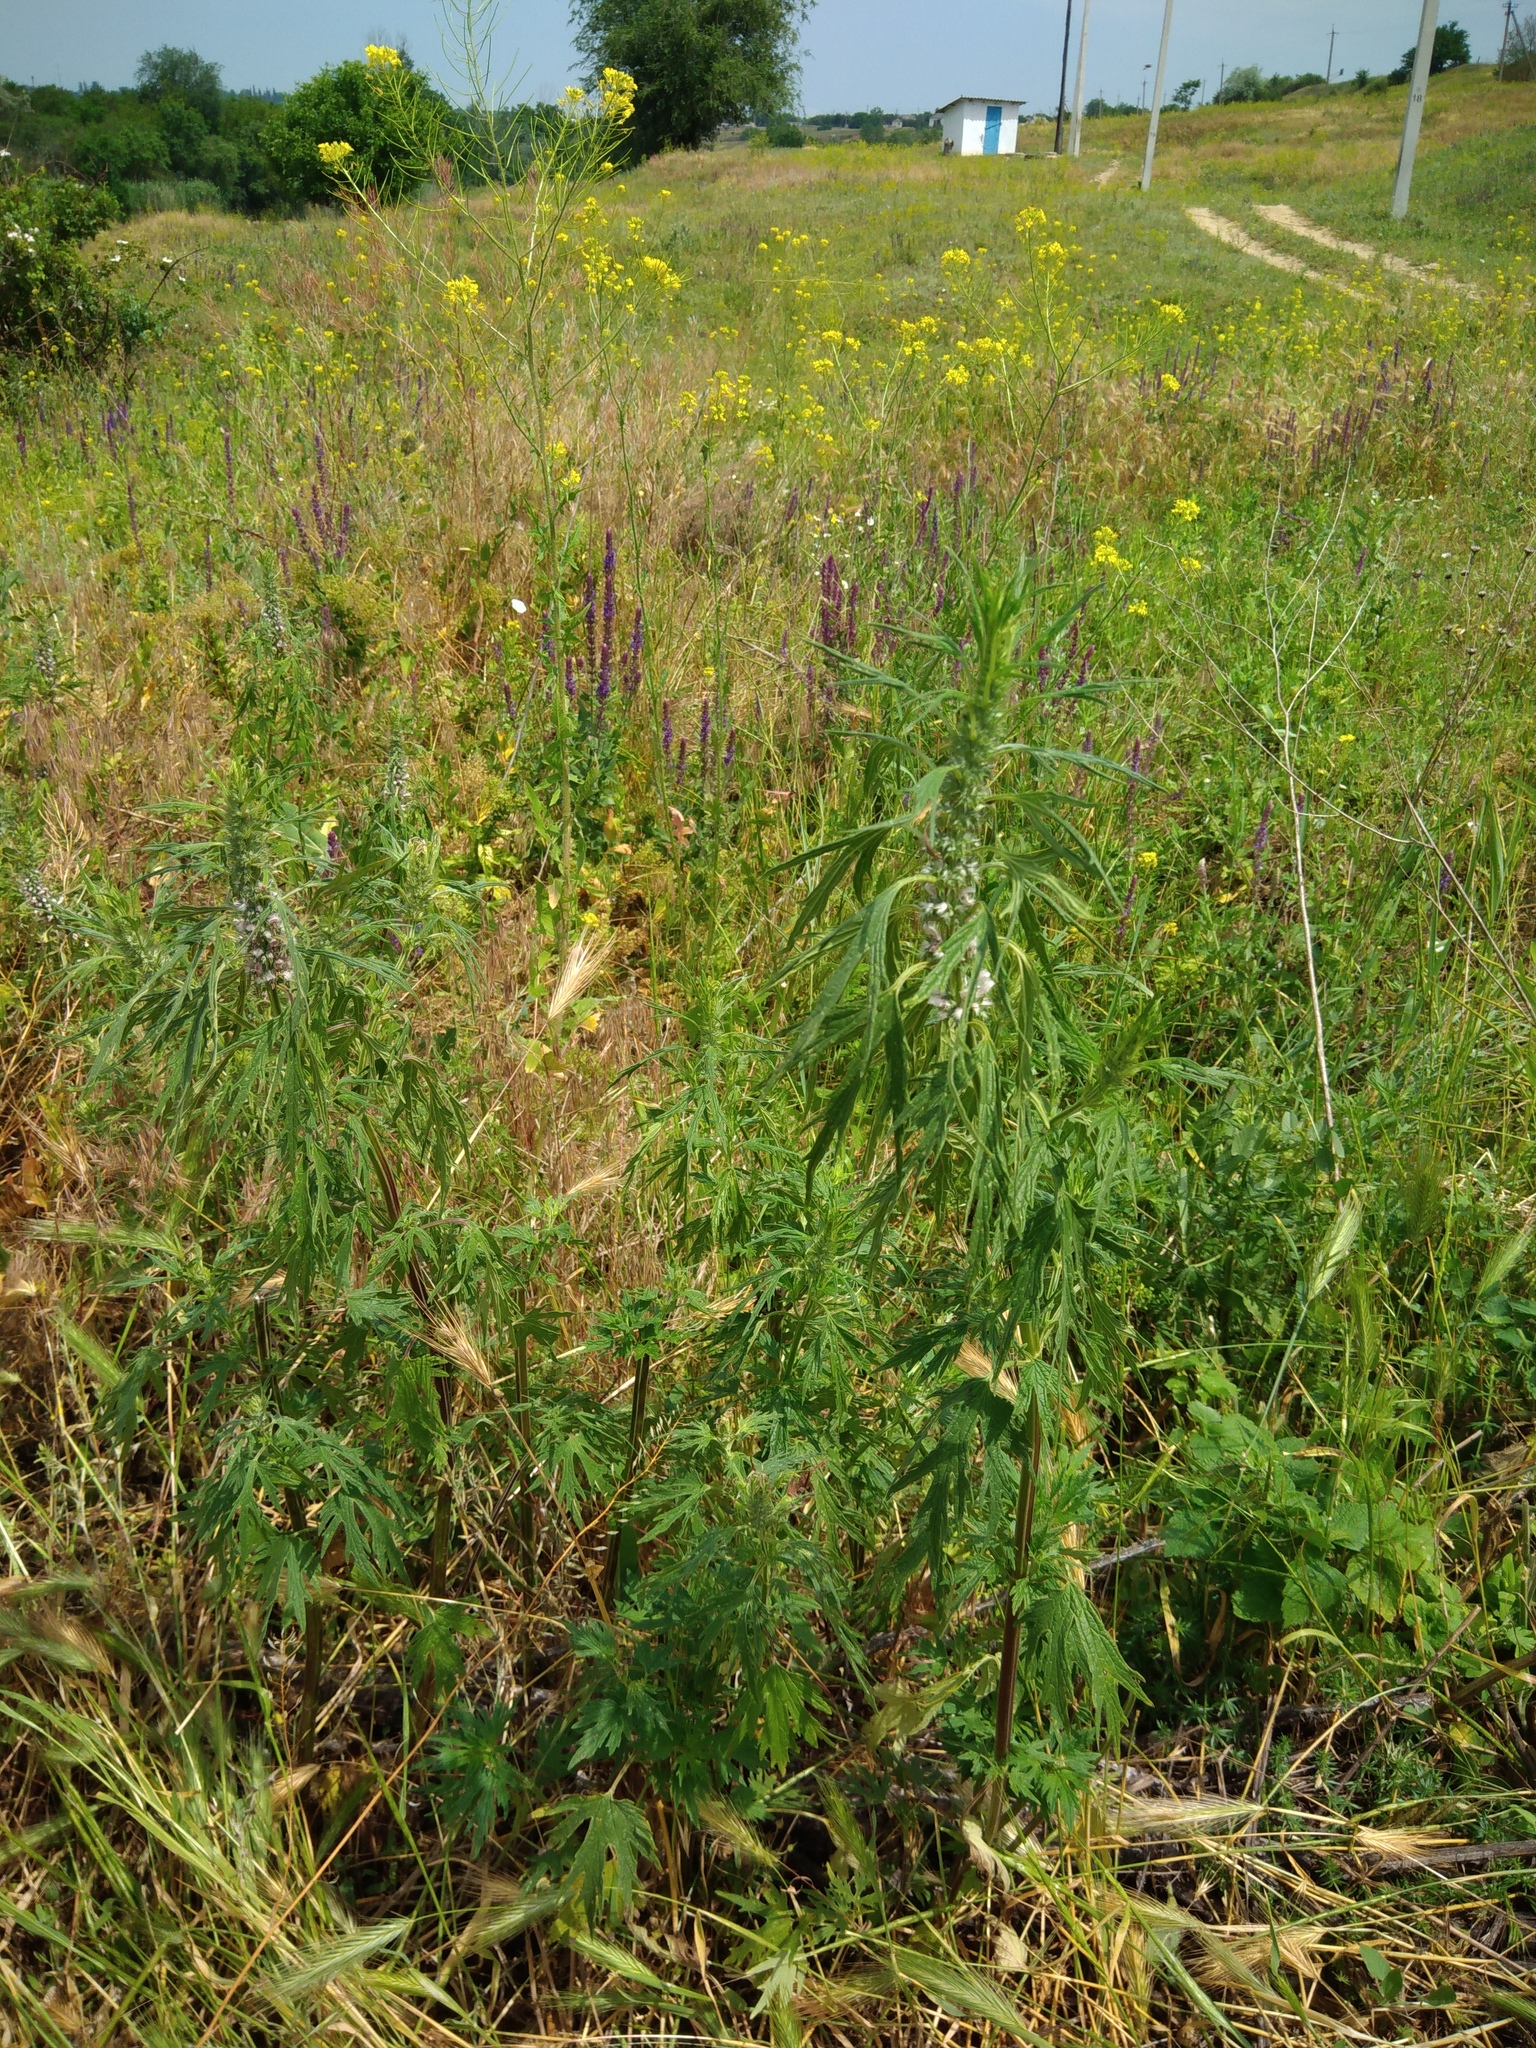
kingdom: Plantae
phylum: Tracheophyta
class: Magnoliopsida
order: Lamiales
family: Lamiaceae
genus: Leonurus
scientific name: Leonurus glaucescens
